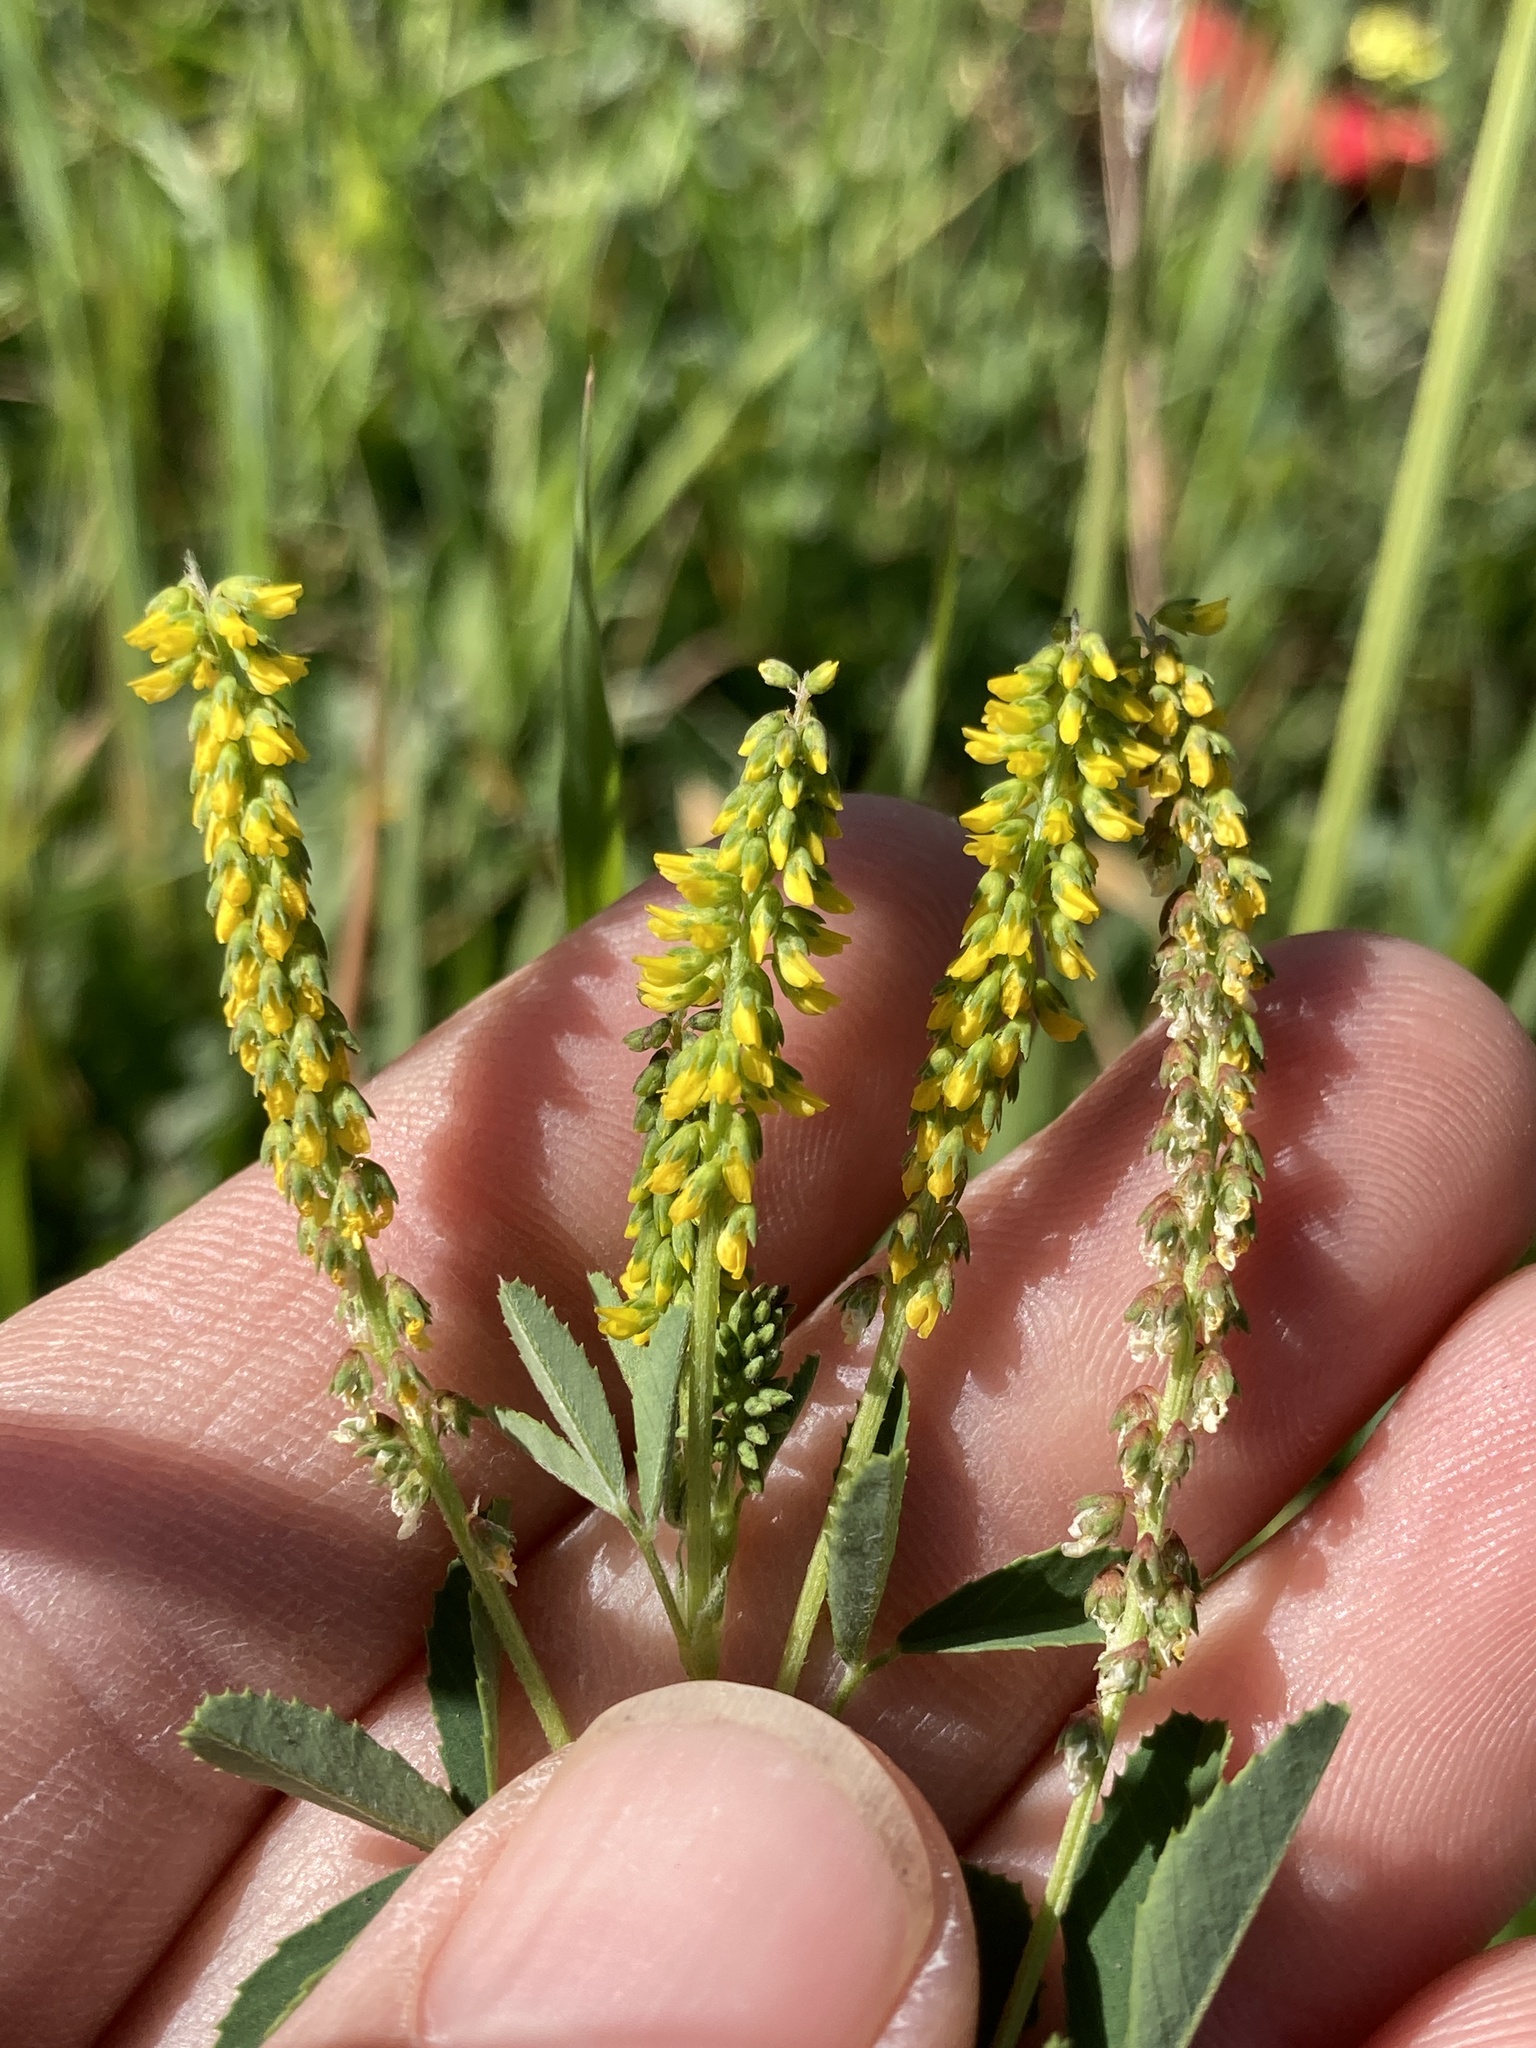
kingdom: Plantae
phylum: Tracheophyta
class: Magnoliopsida
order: Fabales
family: Fabaceae
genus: Melilotus
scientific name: Melilotus indicus
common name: Small melilot
